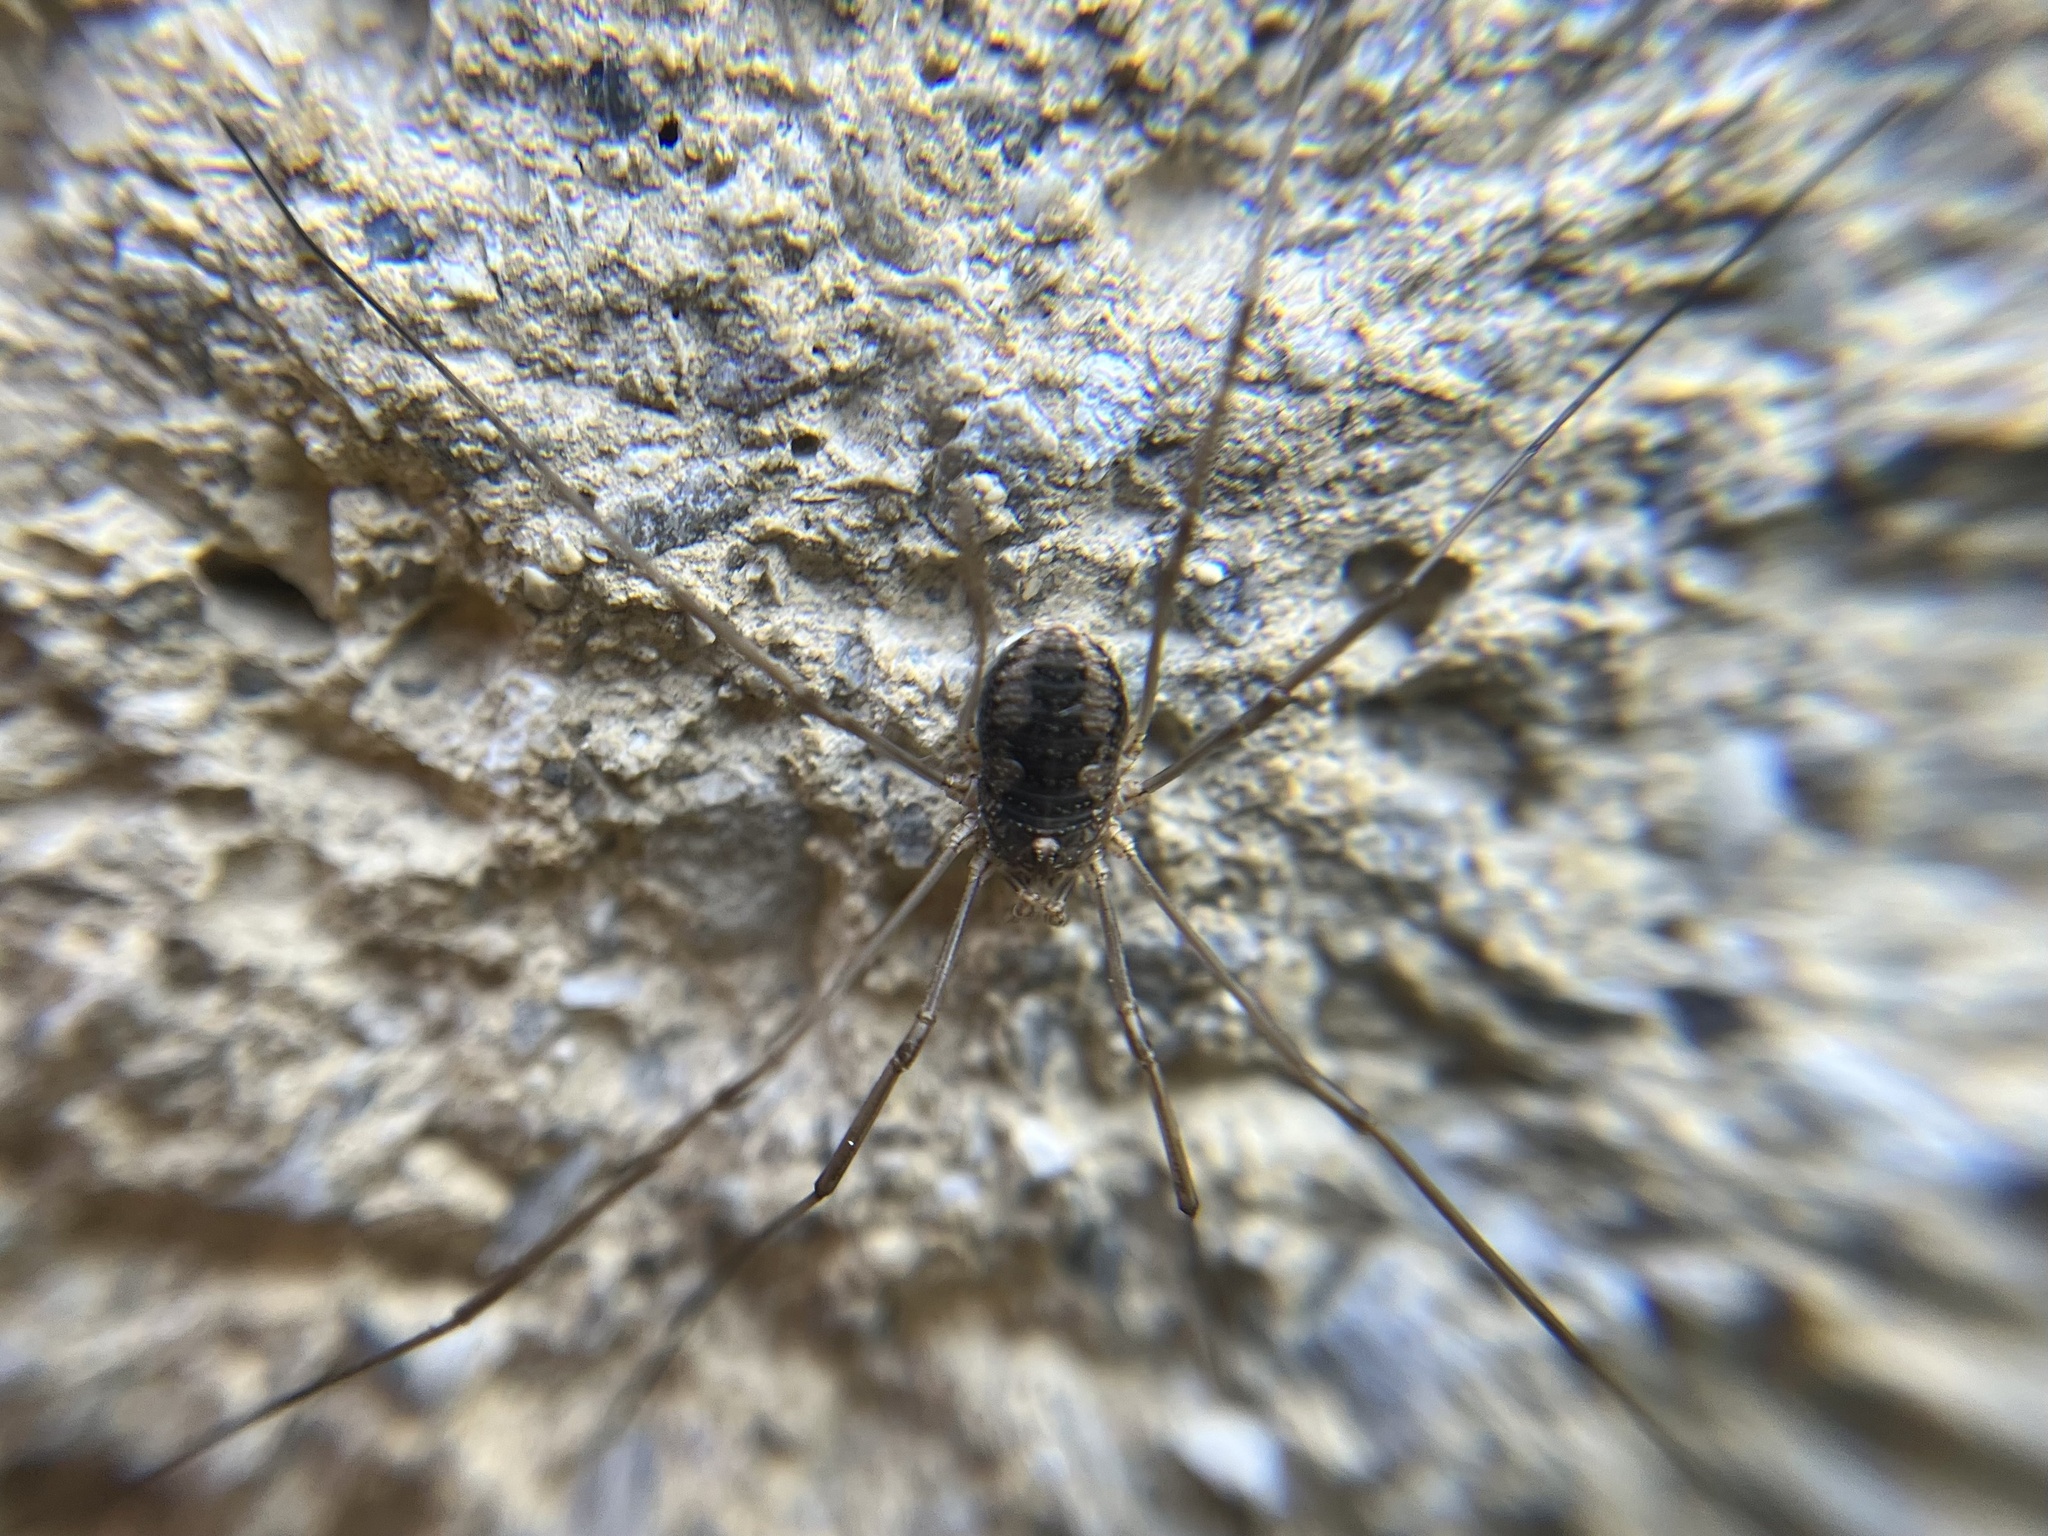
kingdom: Animalia
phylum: Arthropoda
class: Arachnida
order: Opiliones
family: Phalangiidae
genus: Phalangium
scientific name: Phalangium opilio
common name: Daddy longleg
